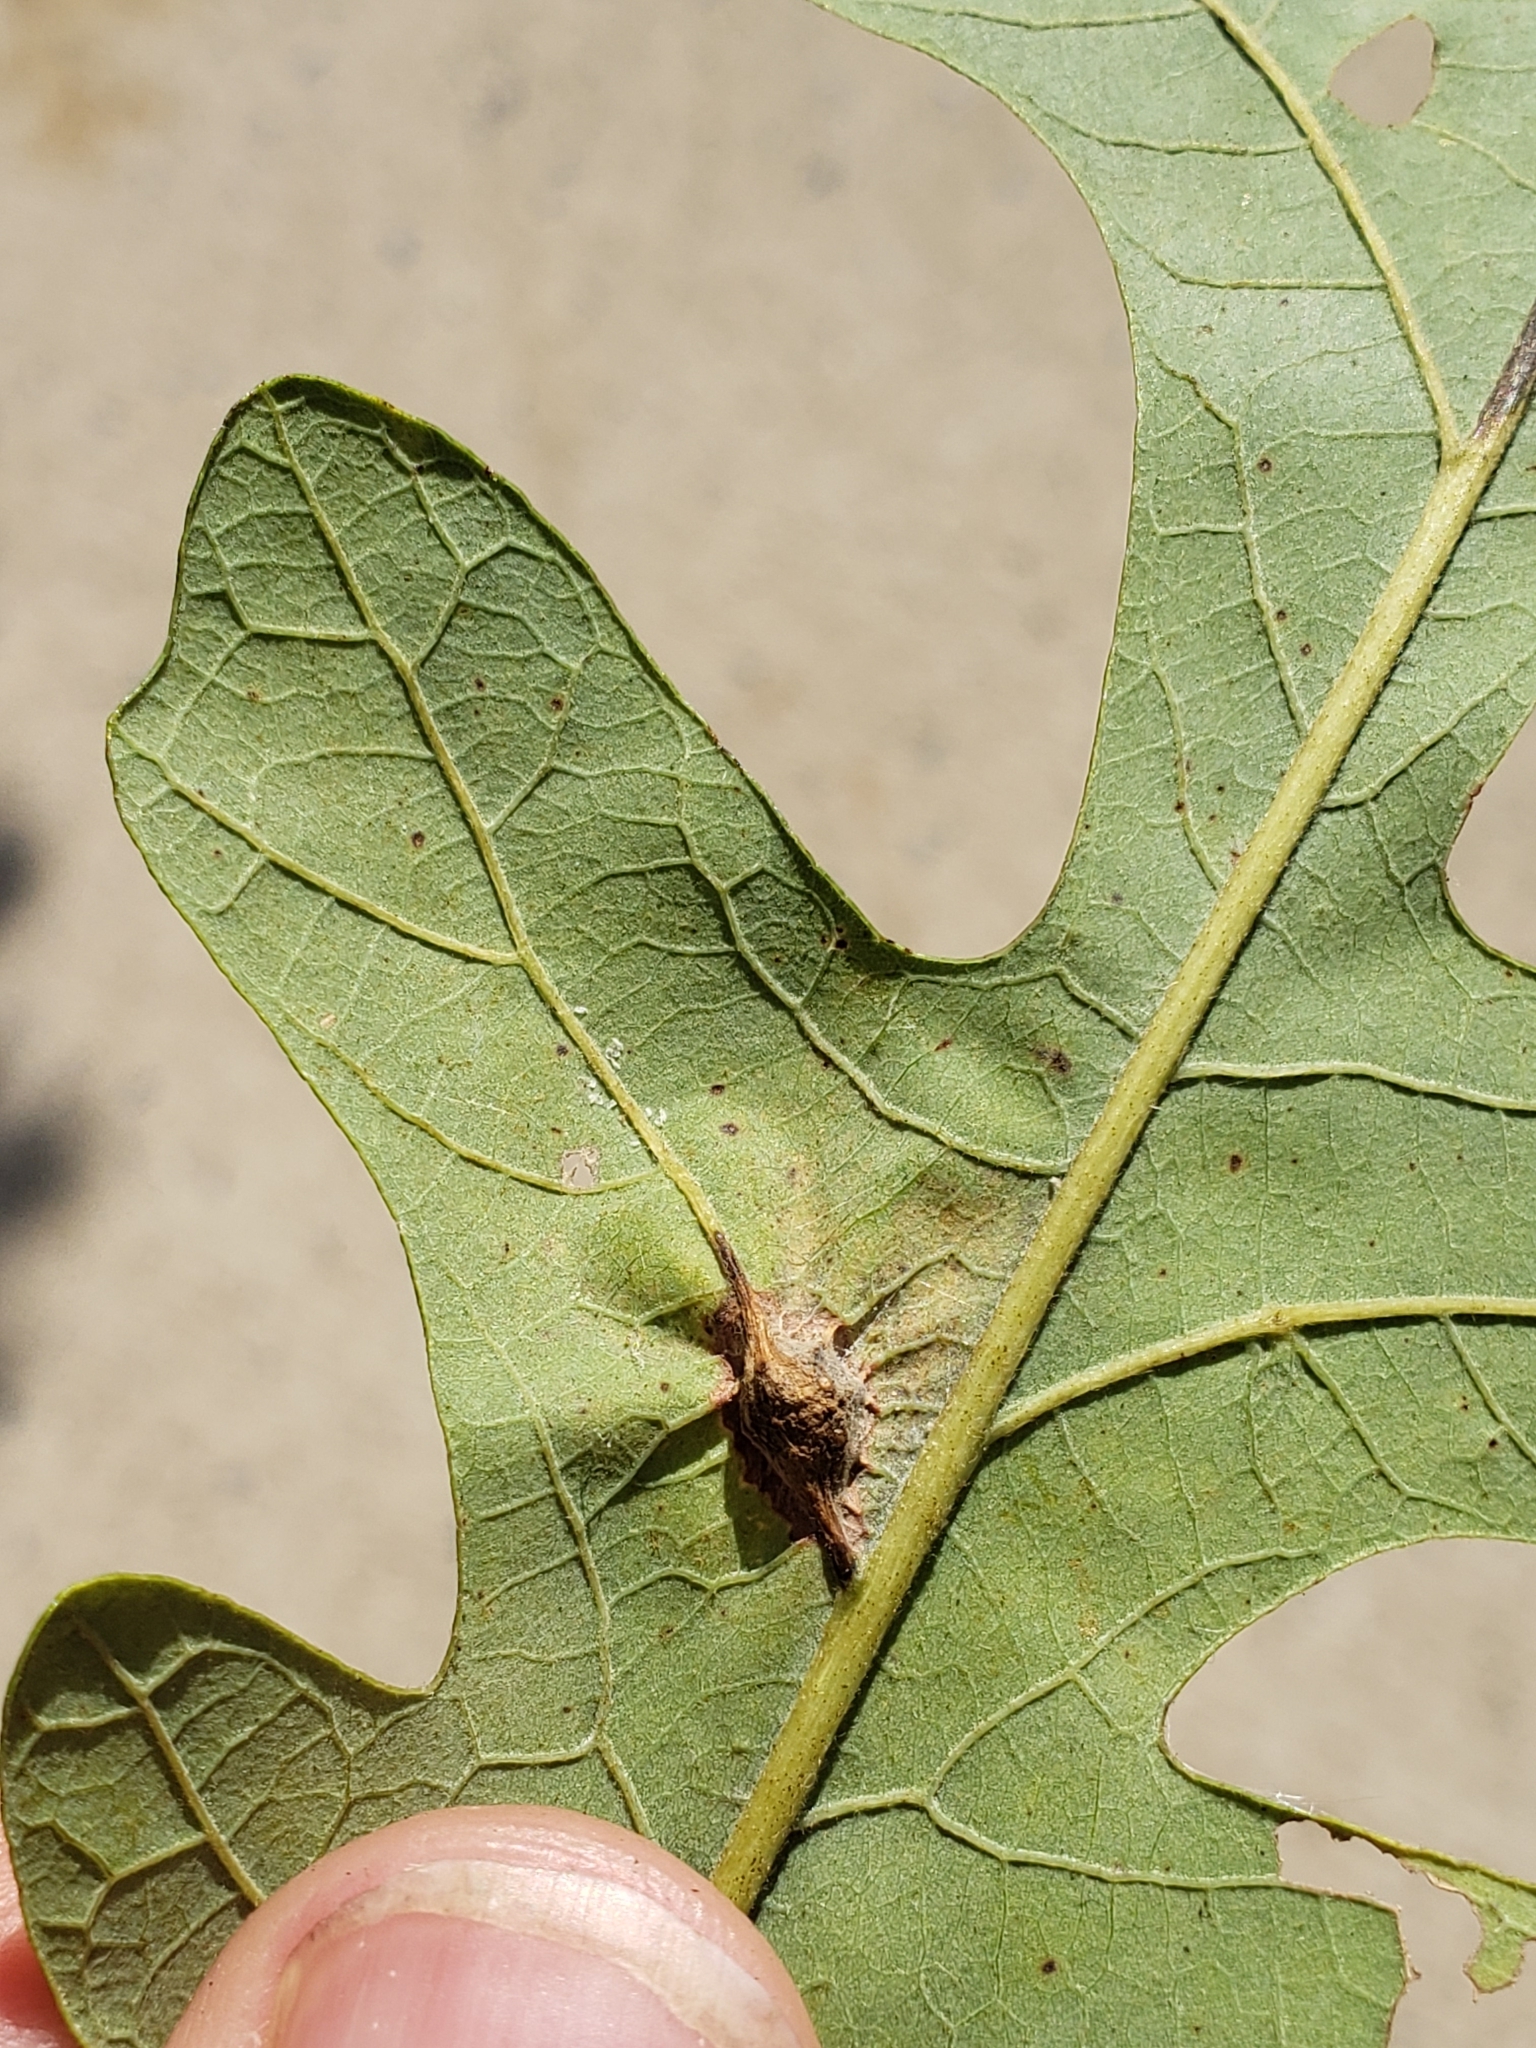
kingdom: Animalia
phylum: Arthropoda
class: Insecta
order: Hymenoptera
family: Cynipidae
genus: Bassettia
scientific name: Bassettia flavipes
